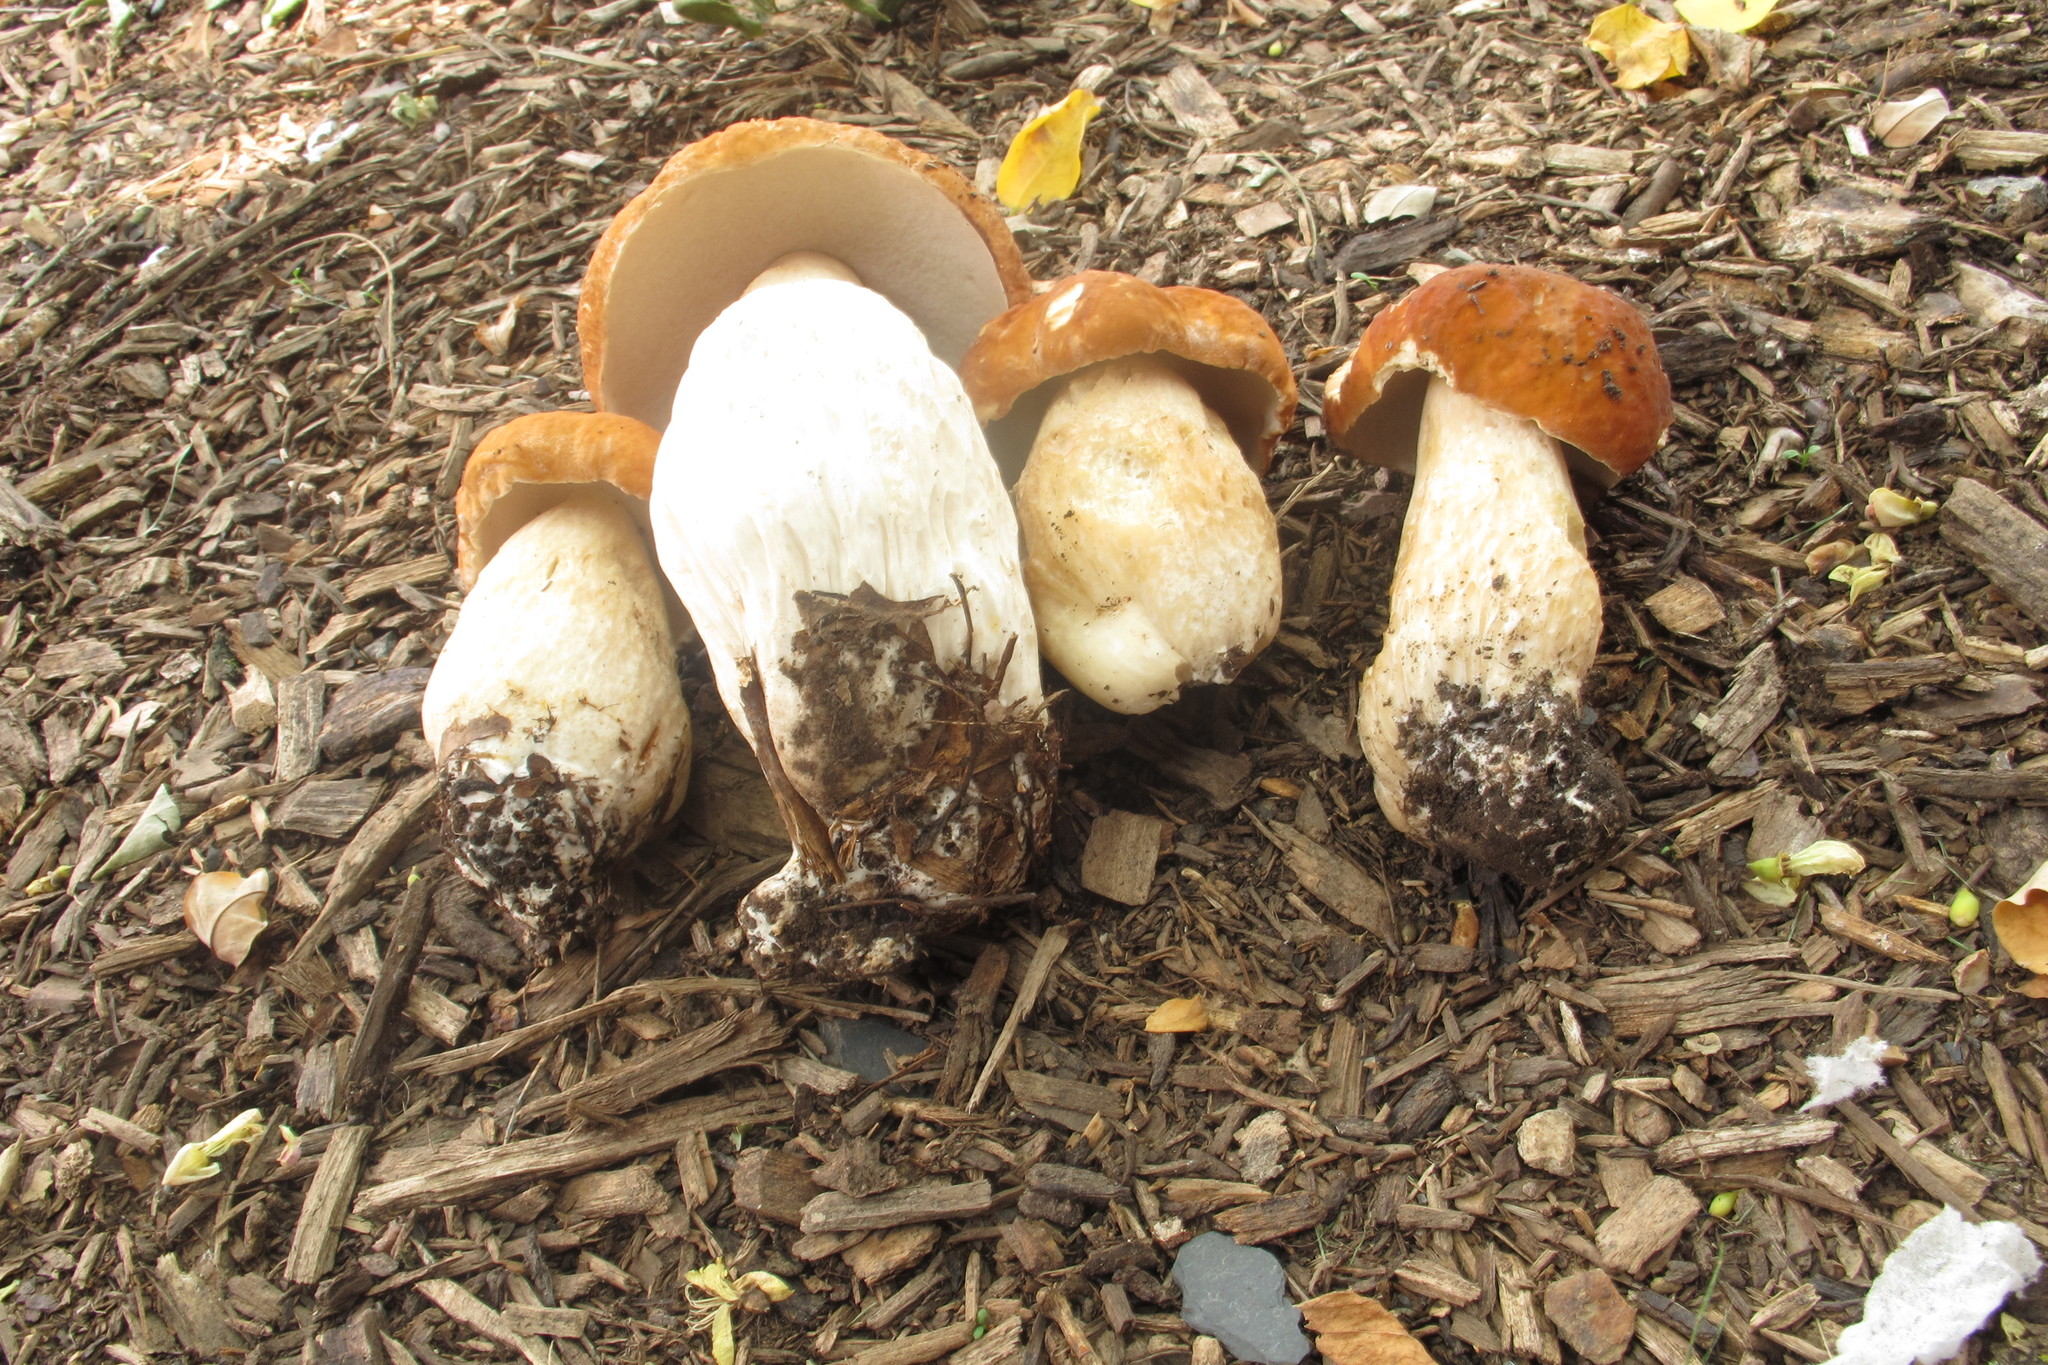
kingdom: Fungi
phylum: Basidiomycota
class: Agaricomycetes
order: Boletales
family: Boletaceae
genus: Boletus
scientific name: Boletus nobilissimus
